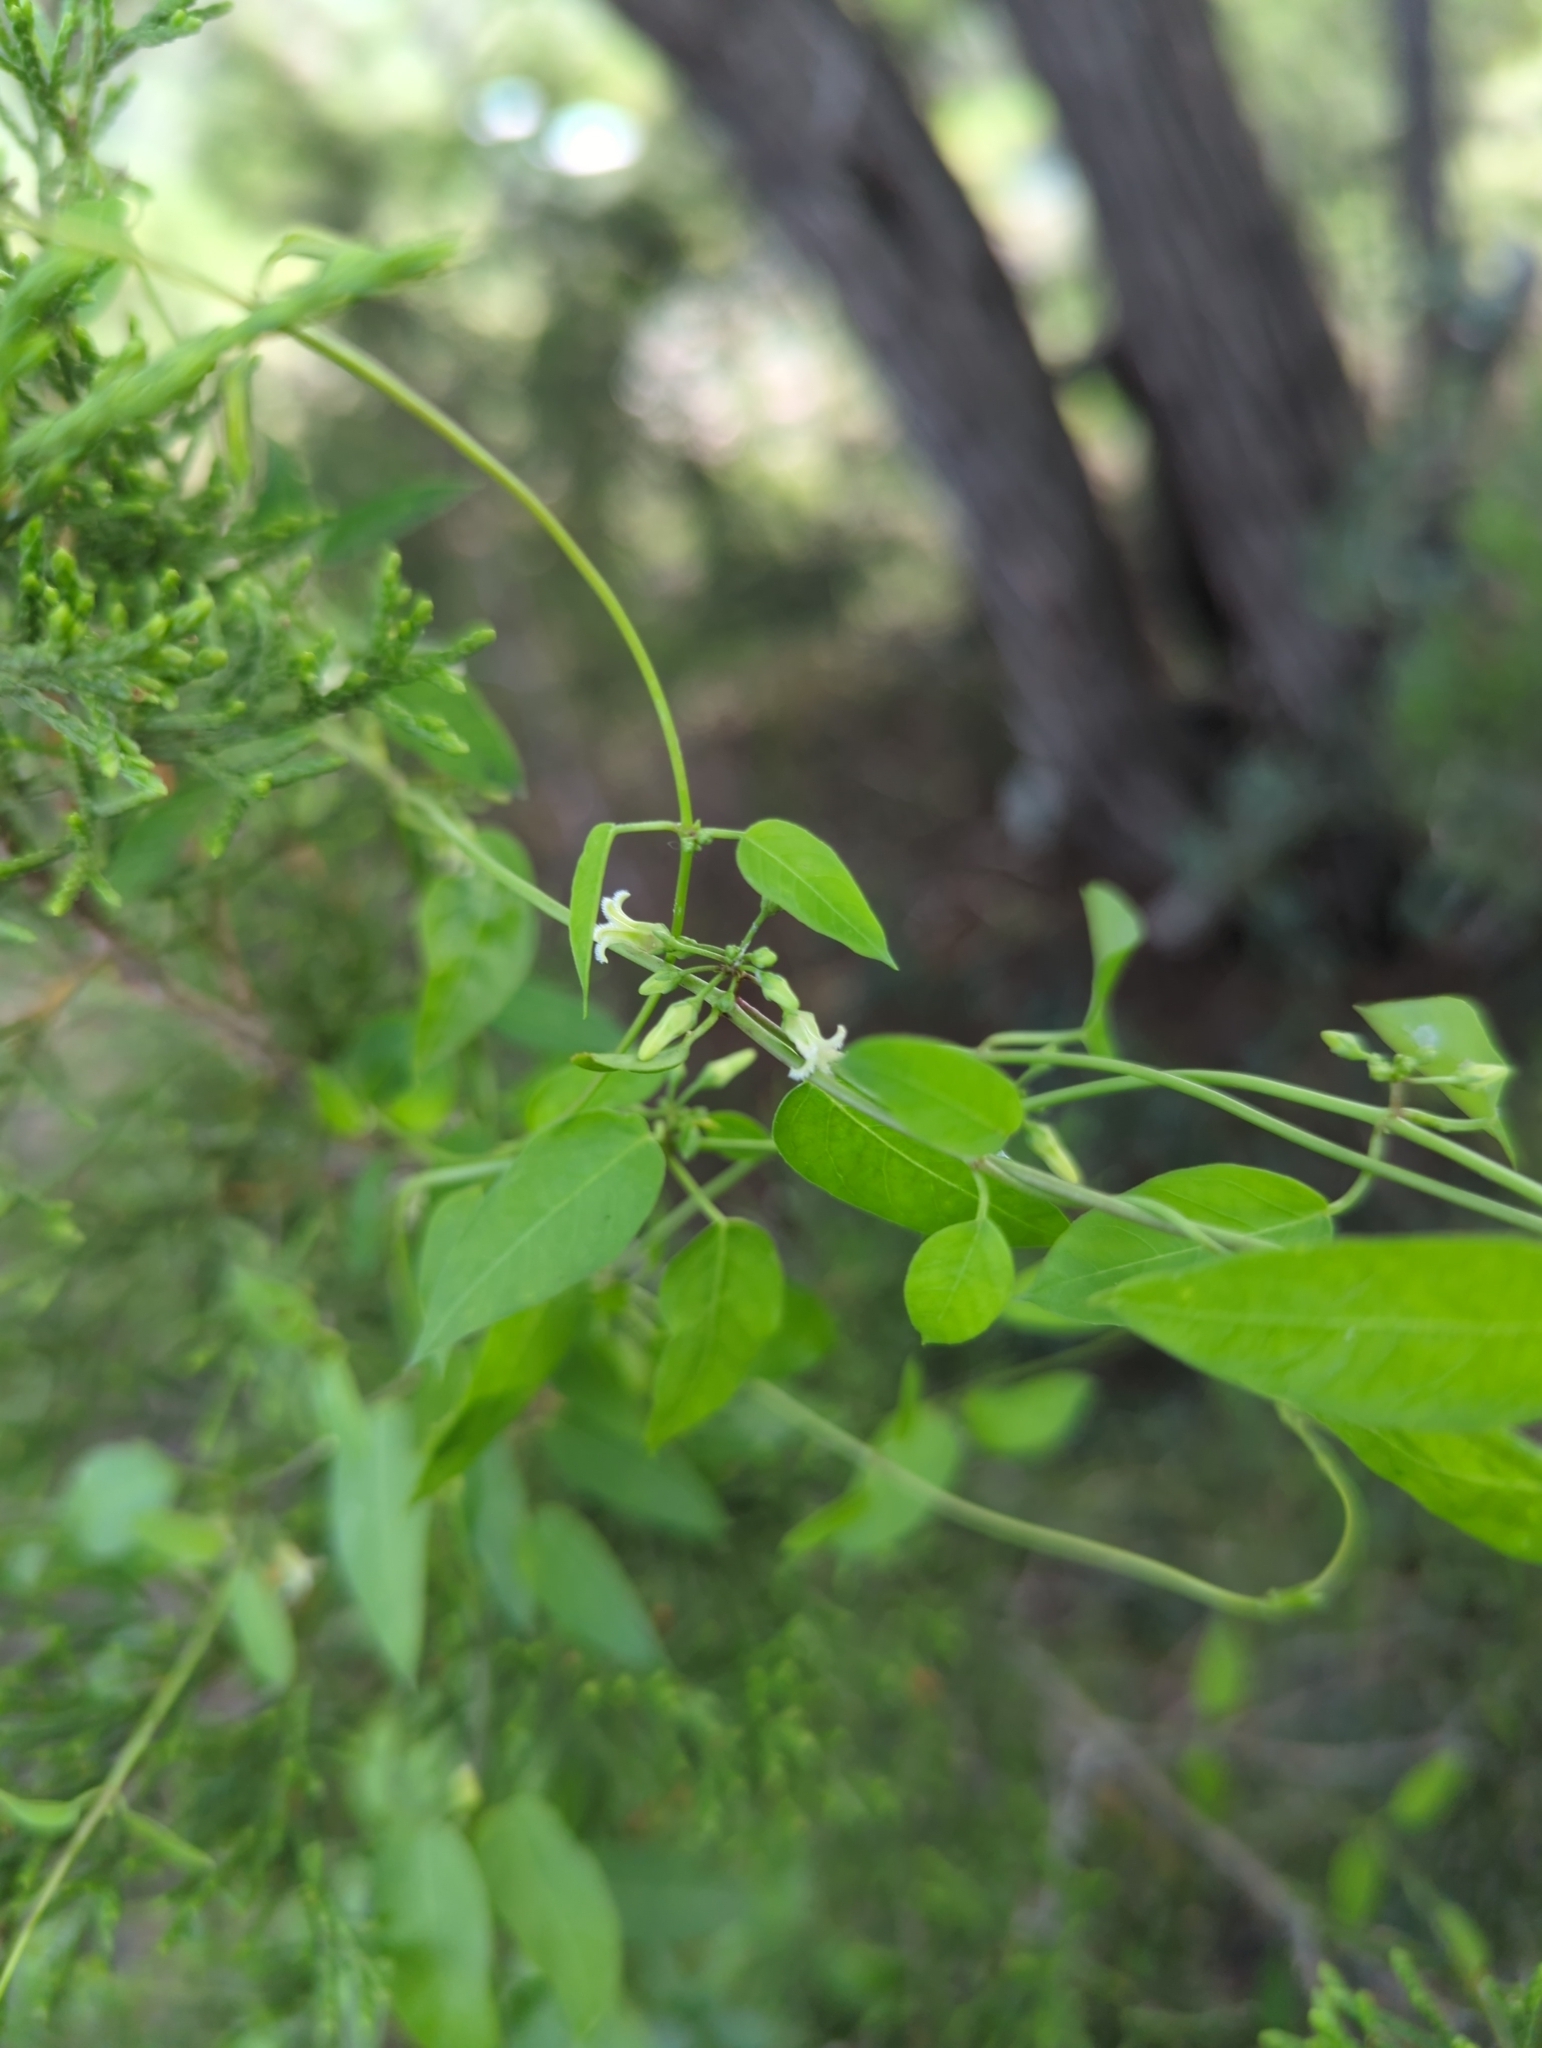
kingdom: Plantae
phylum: Tracheophyta
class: Magnoliopsida
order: Gentianales
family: Apocynaceae
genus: Metastelma
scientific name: Metastelma barbigerum
